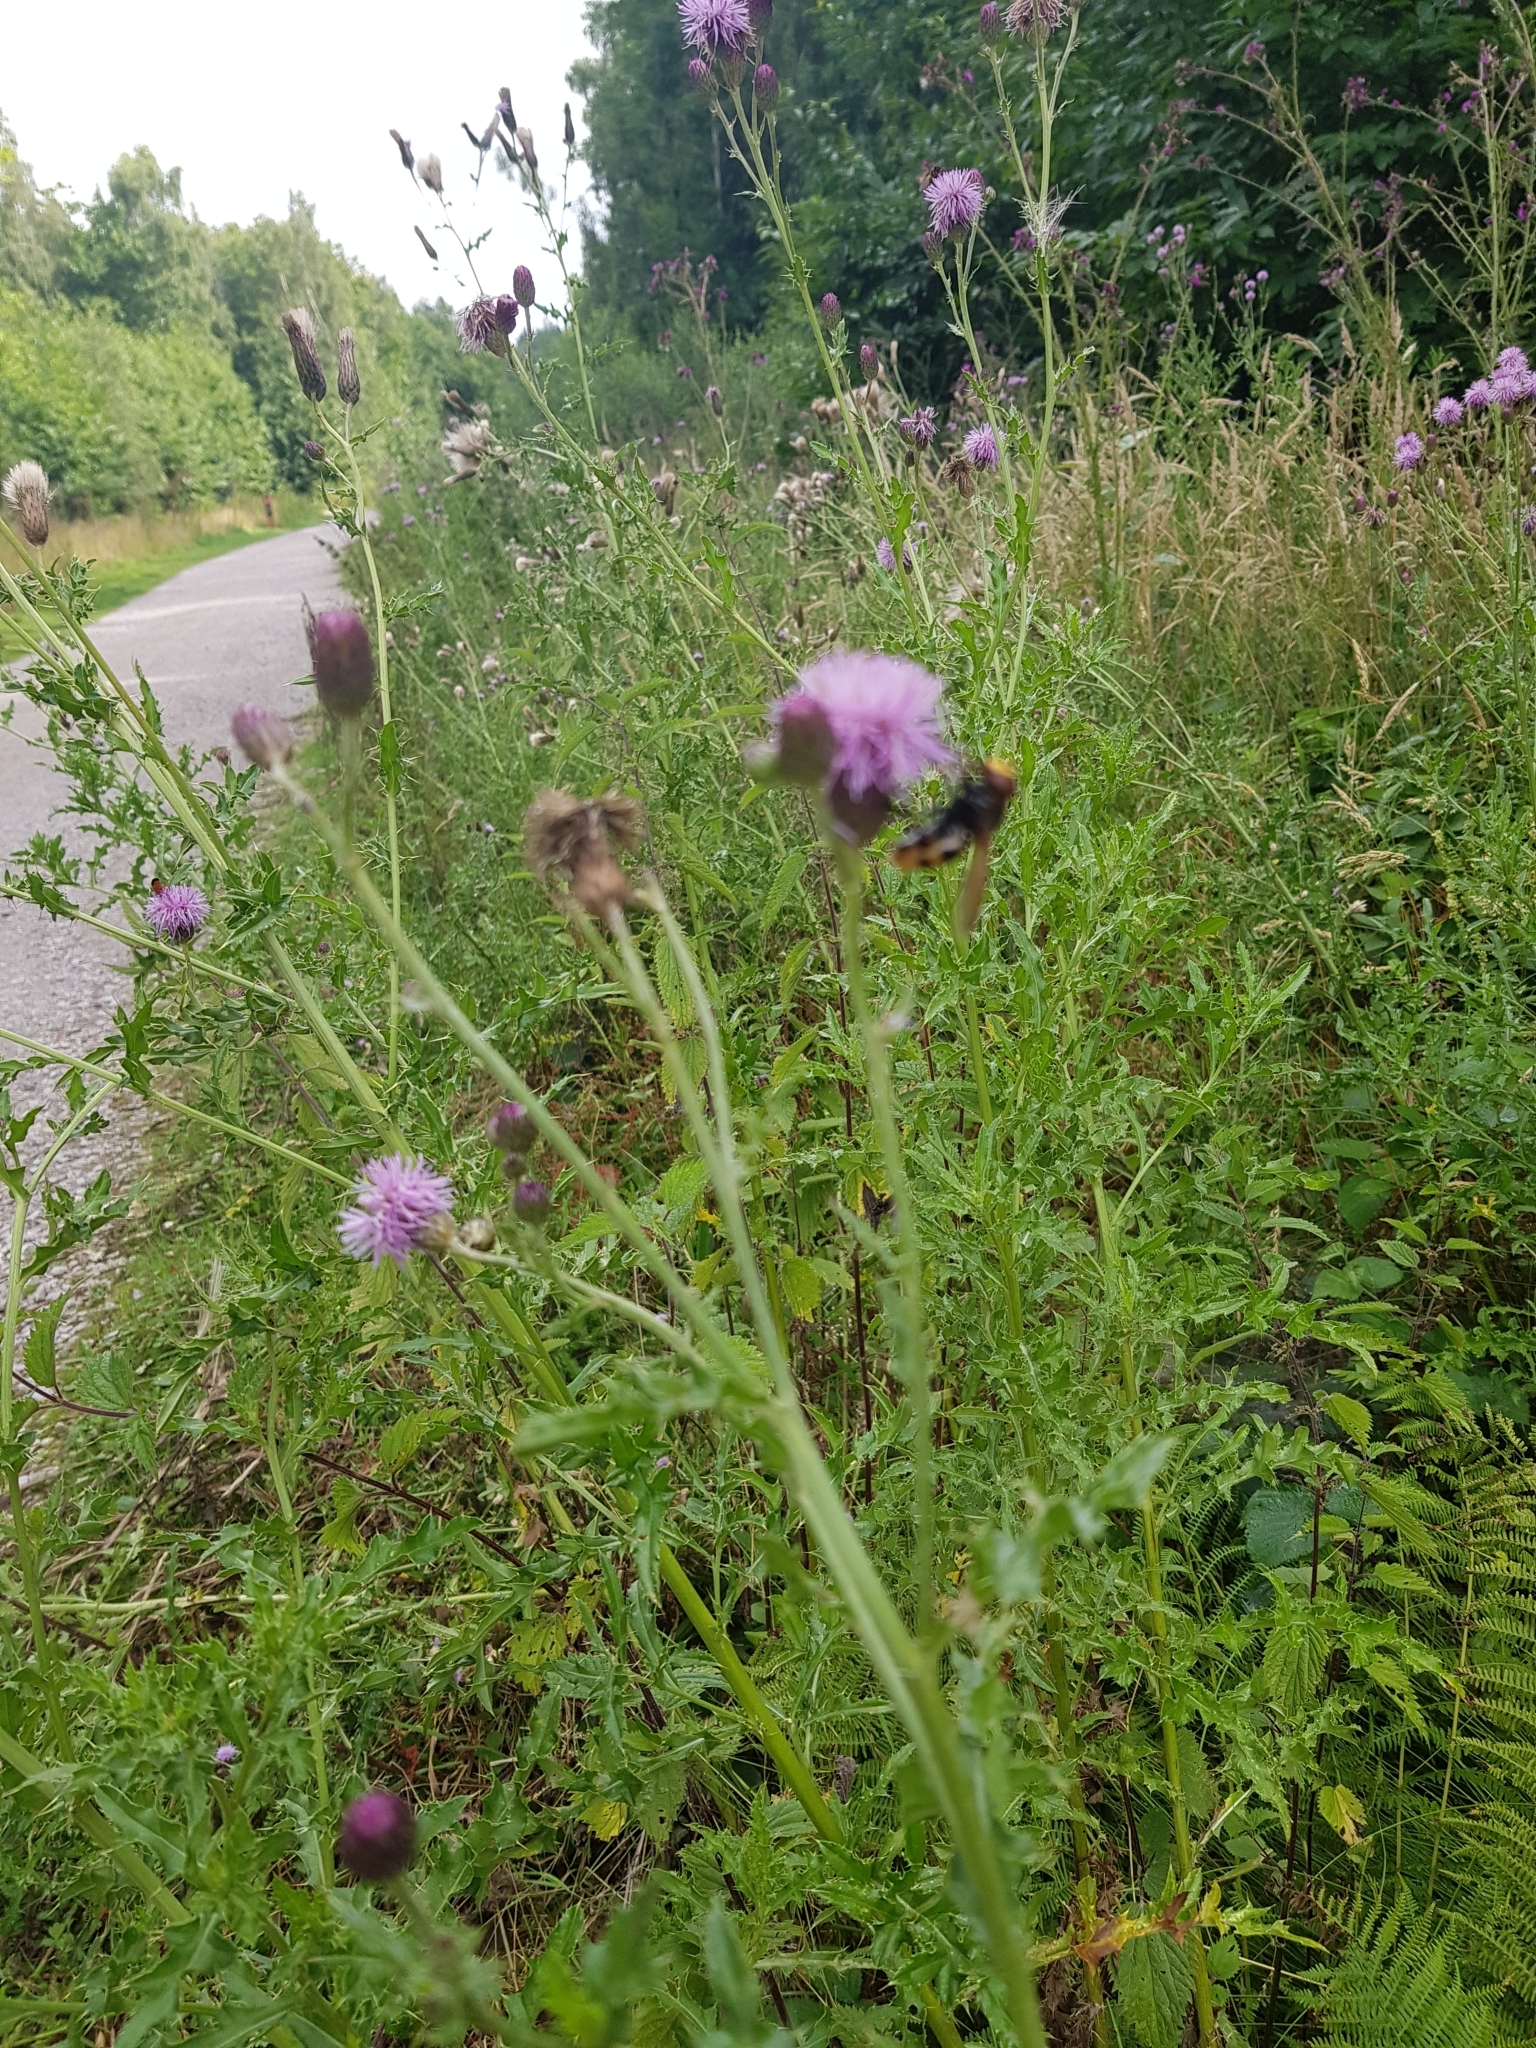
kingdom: Animalia
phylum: Arthropoda
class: Insecta
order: Diptera
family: Syrphidae
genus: Volucella
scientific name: Volucella zonaria
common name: Hornet hoverfly
